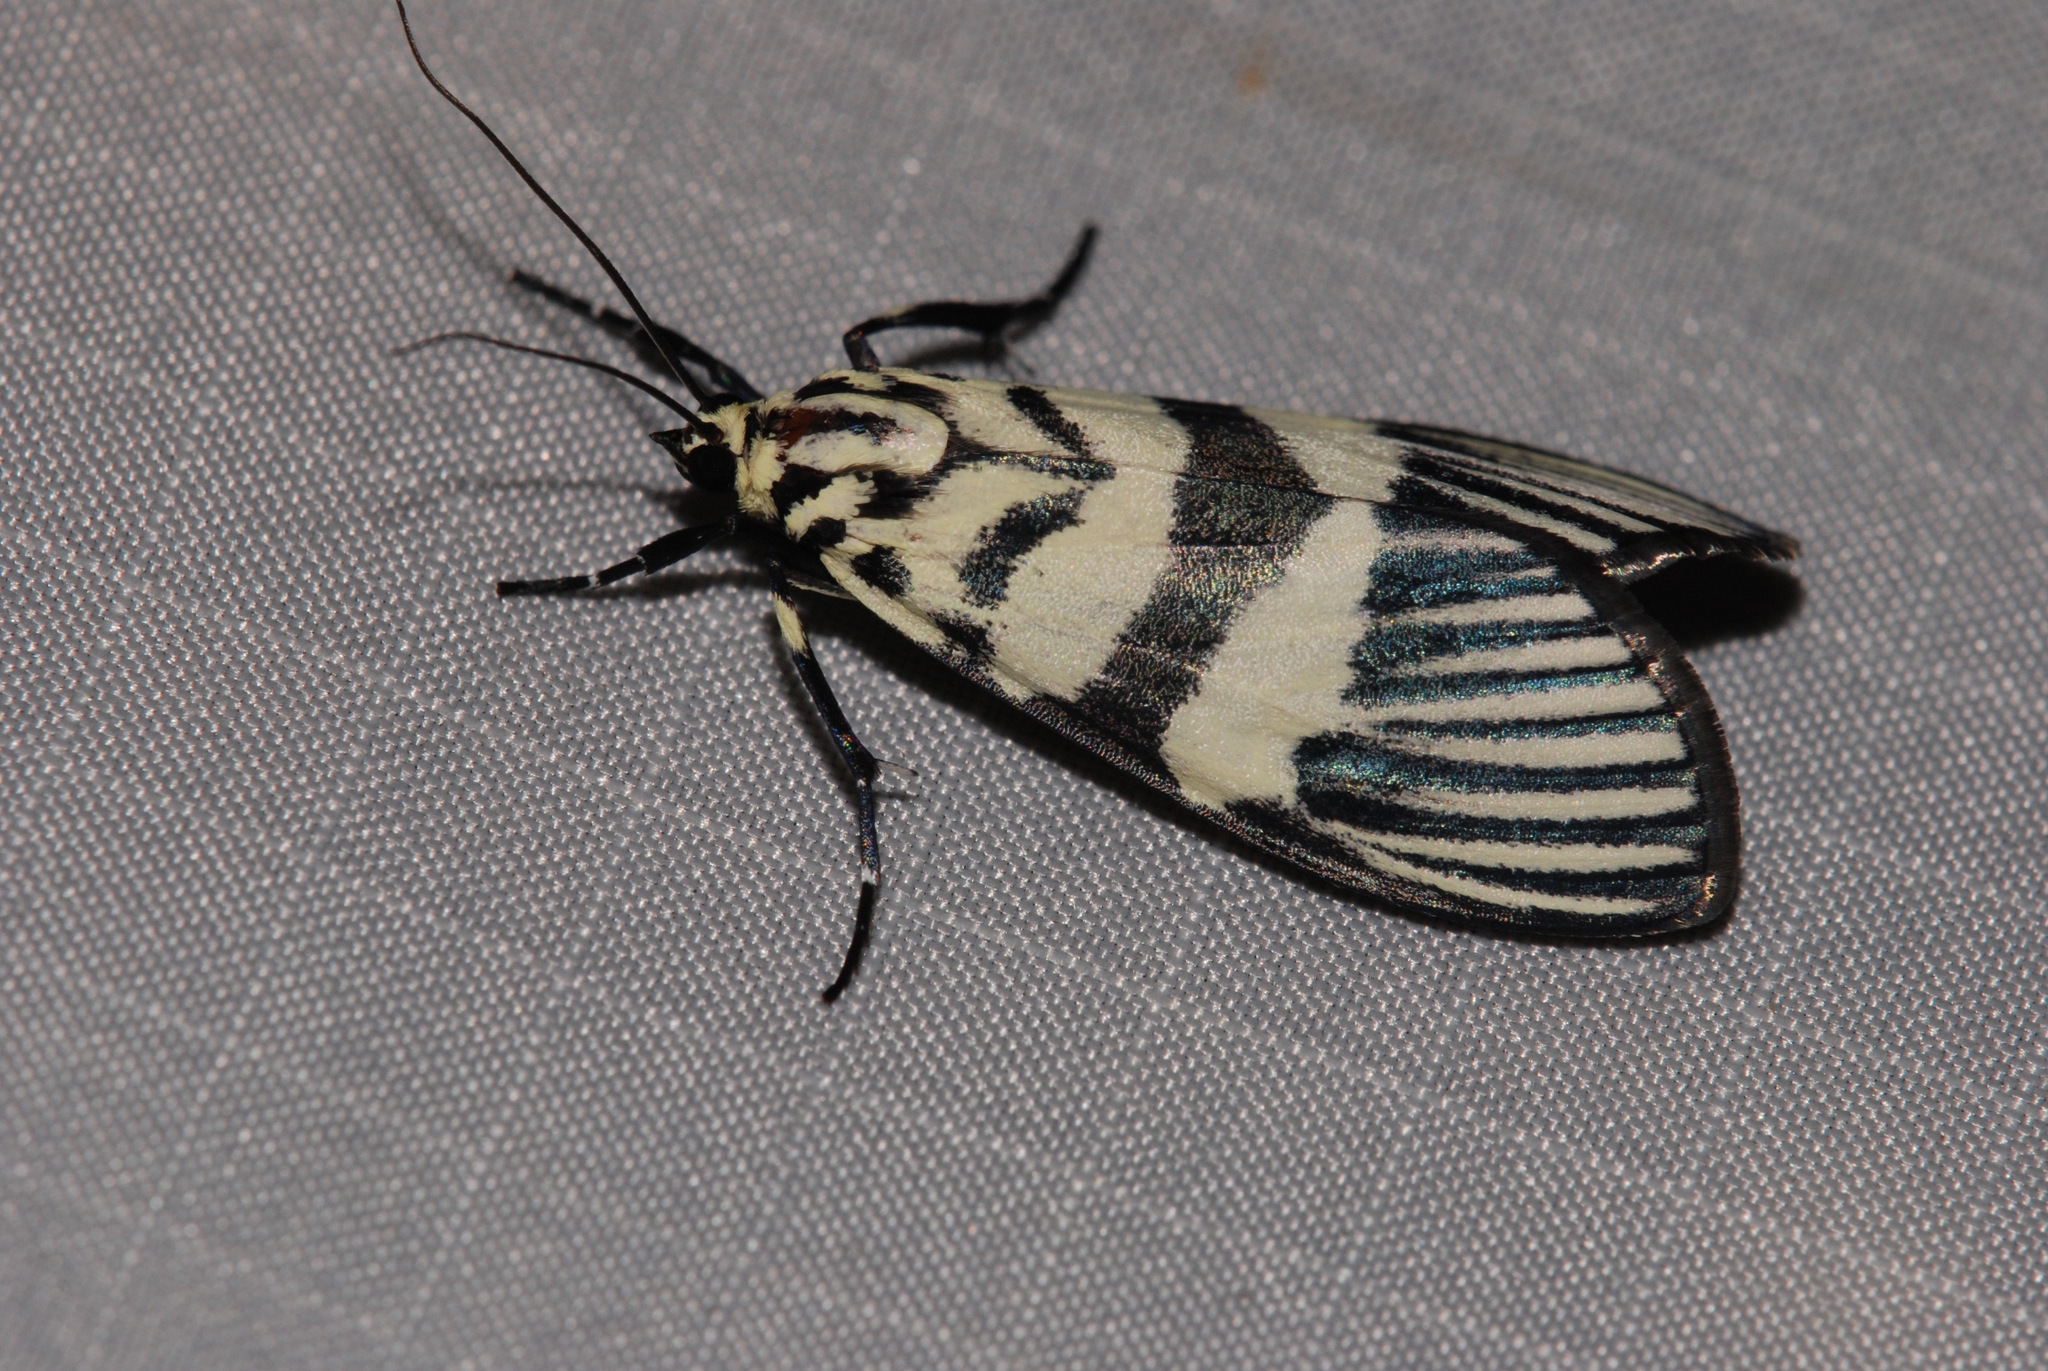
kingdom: Animalia
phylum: Arthropoda
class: Insecta
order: Lepidoptera
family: Crambidae
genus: Heortia
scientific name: Heortia vitessoides
